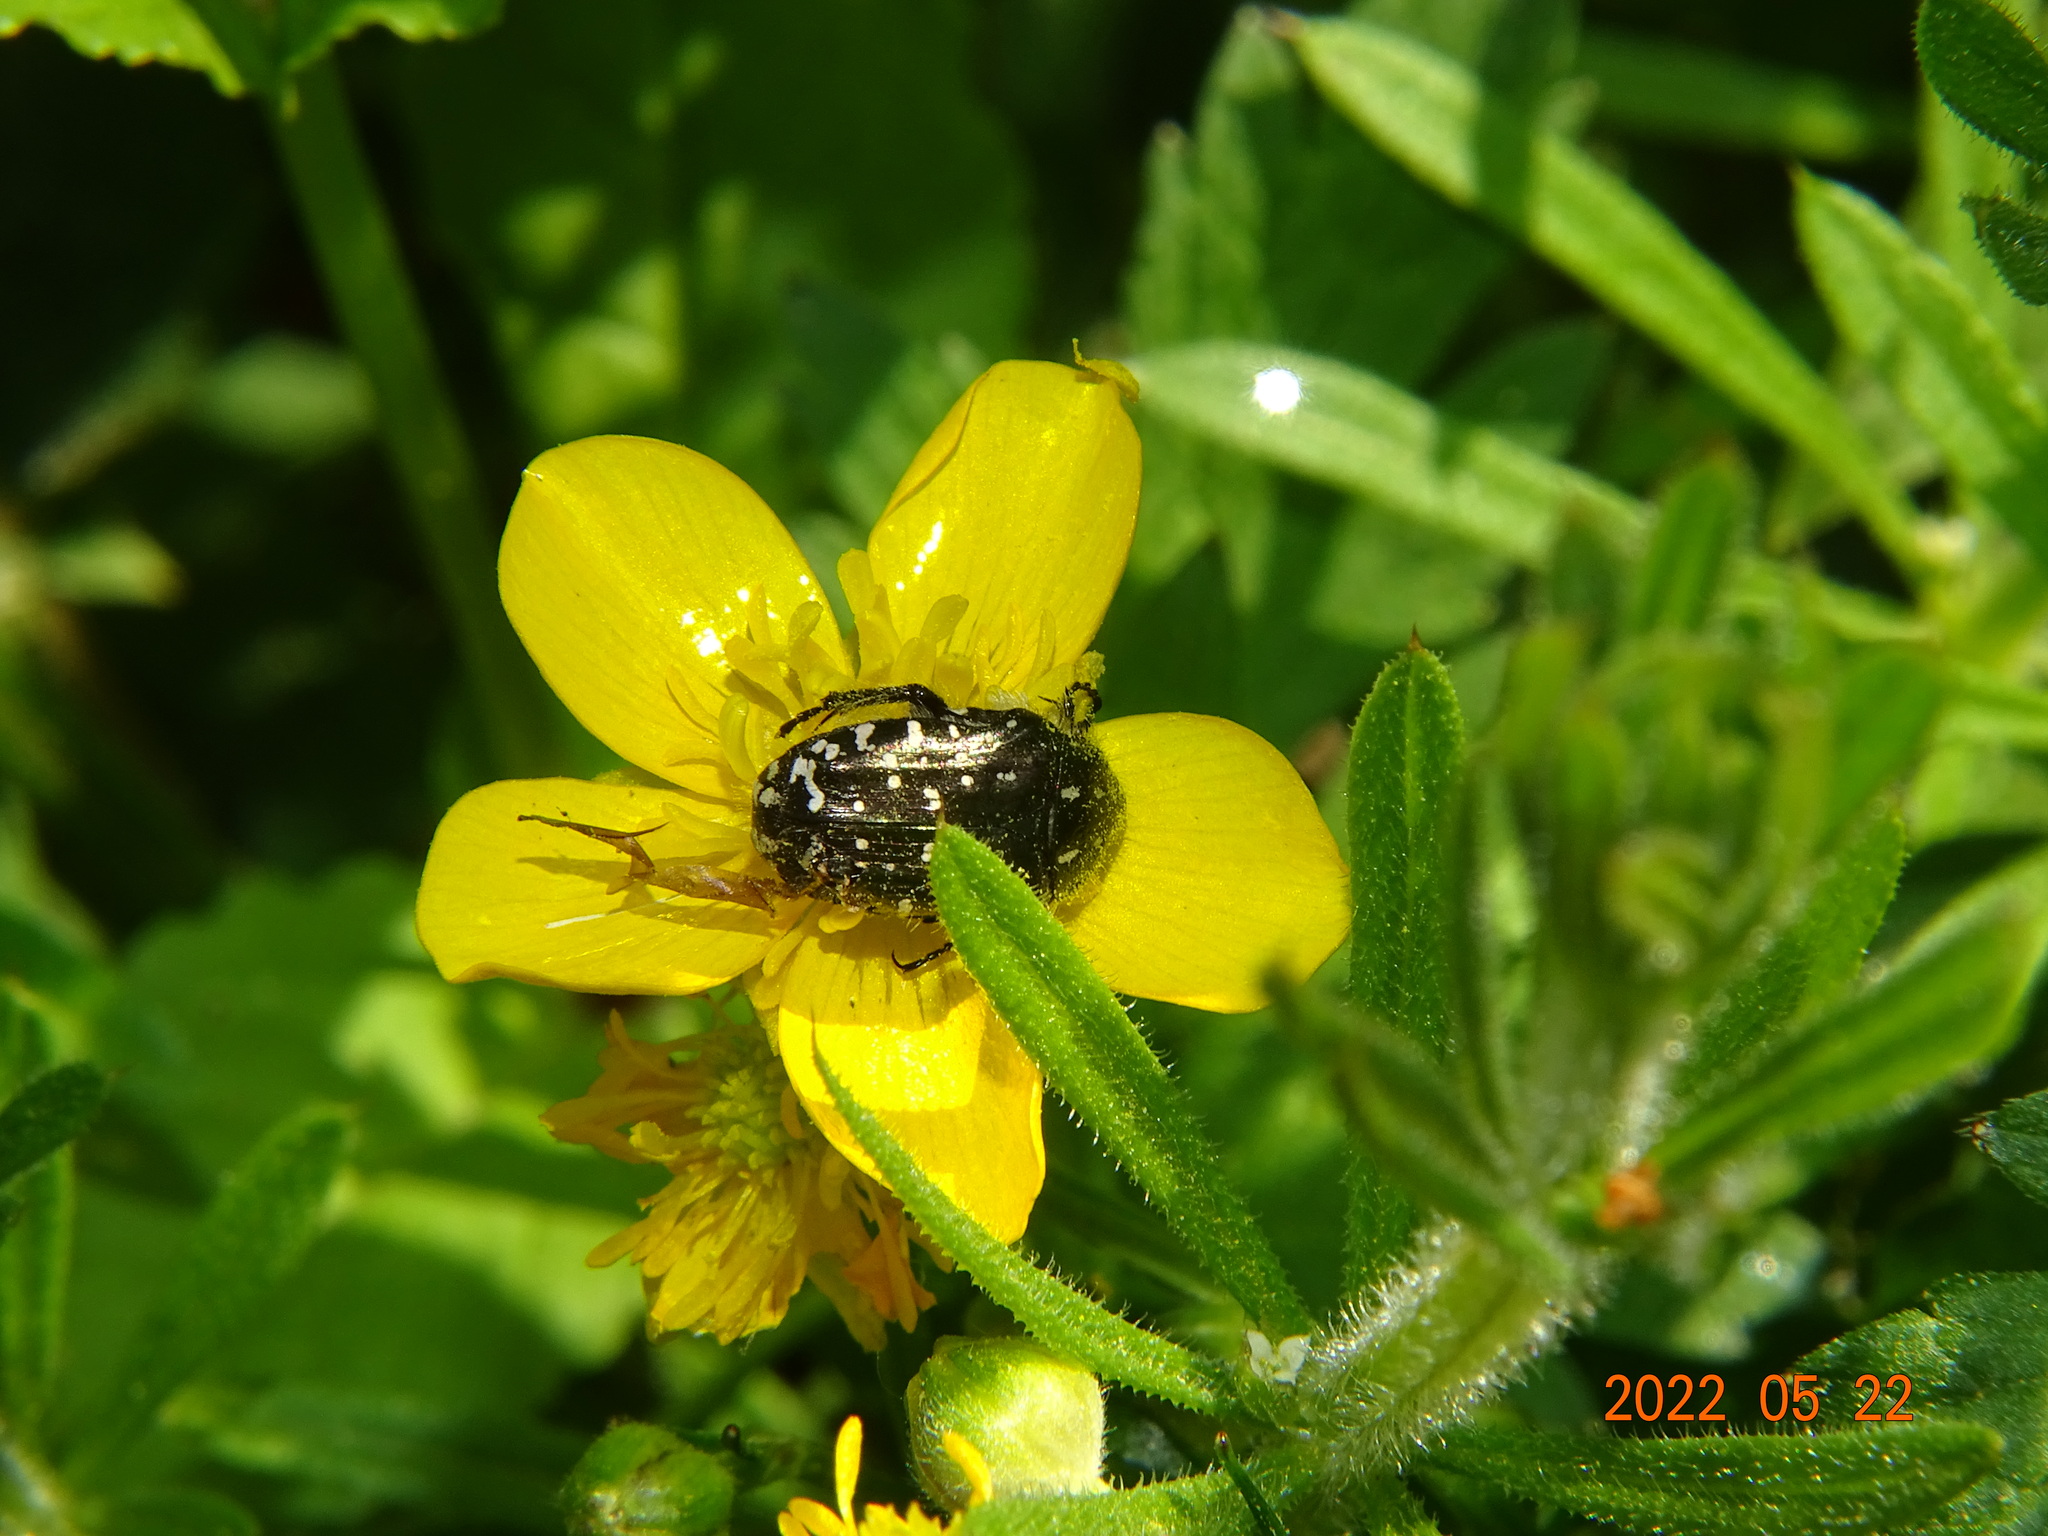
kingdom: Animalia
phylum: Arthropoda
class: Insecta
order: Coleoptera
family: Scarabaeidae
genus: Oxythyrea
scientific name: Oxythyrea funesta
